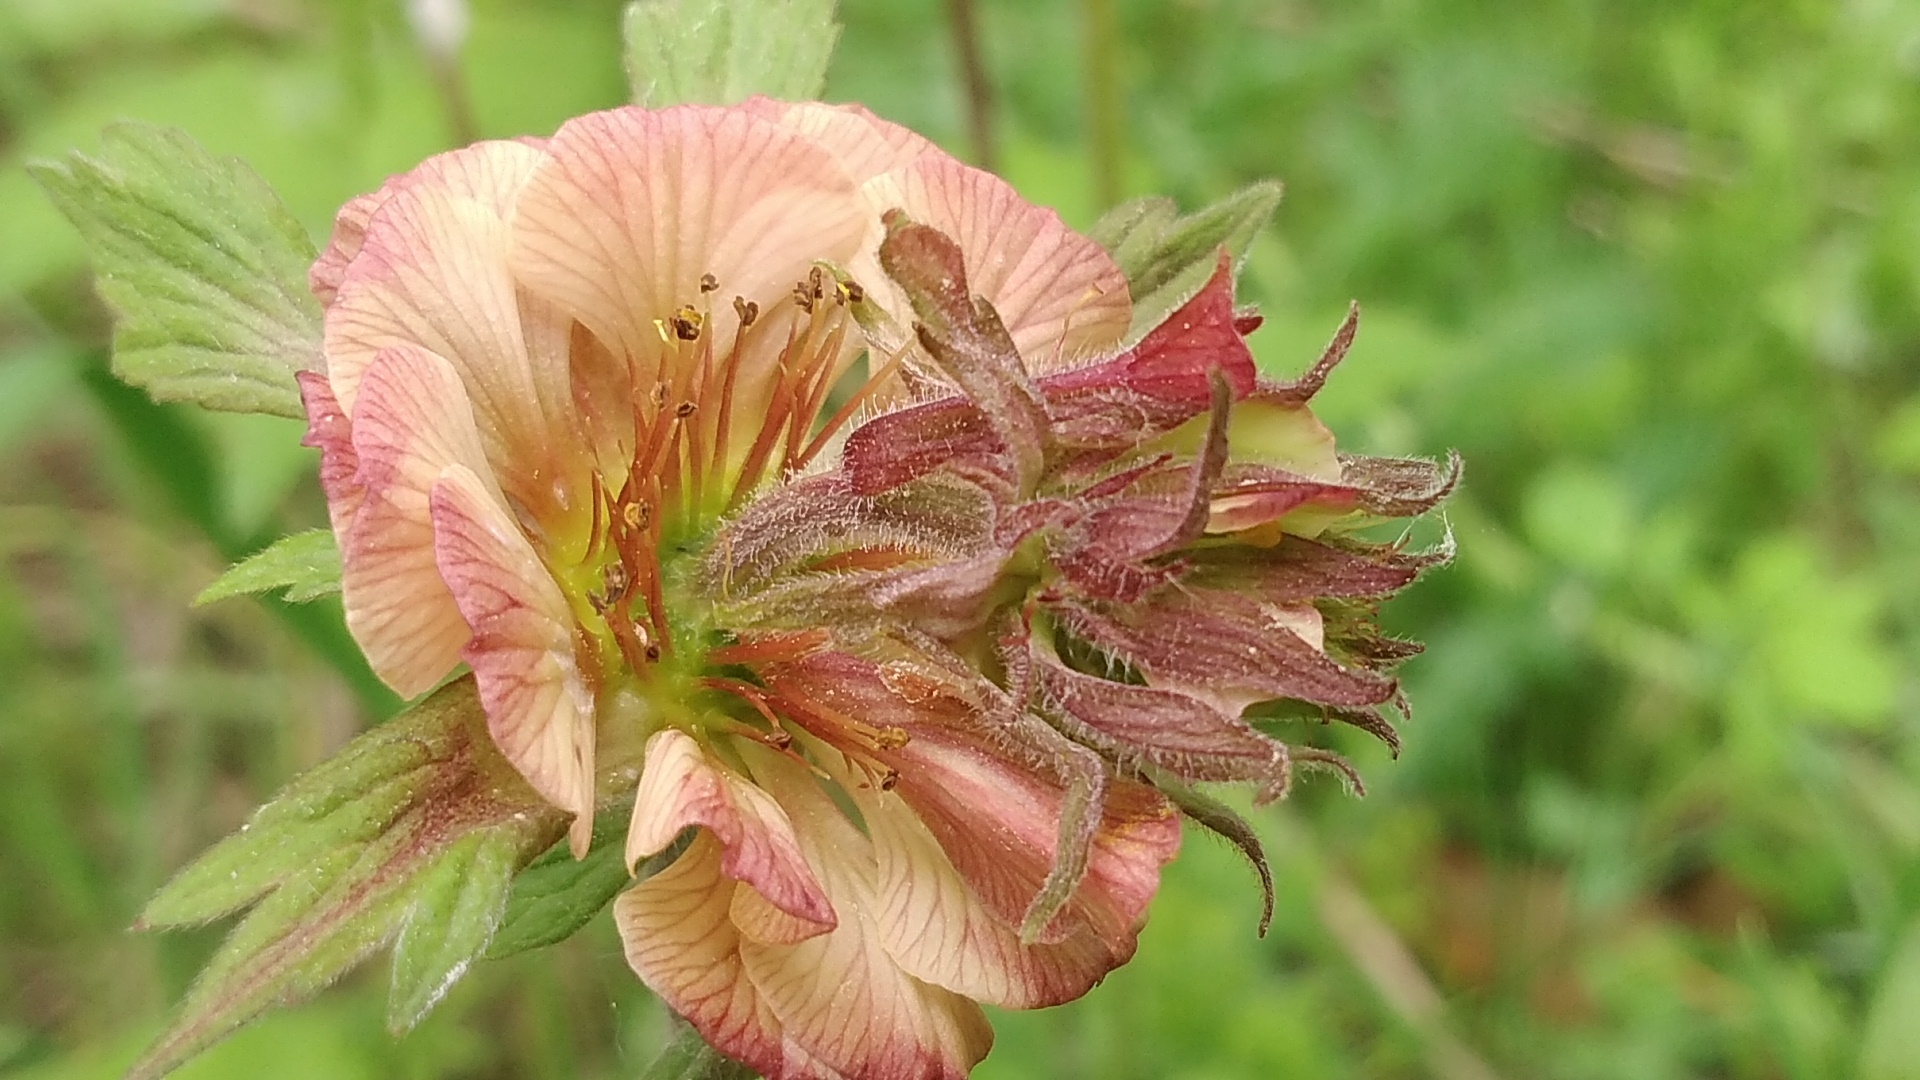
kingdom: Plantae
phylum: Tracheophyta
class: Magnoliopsida
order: Rosales
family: Rosaceae
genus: Geum
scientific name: Geum rivale
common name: Water avens
